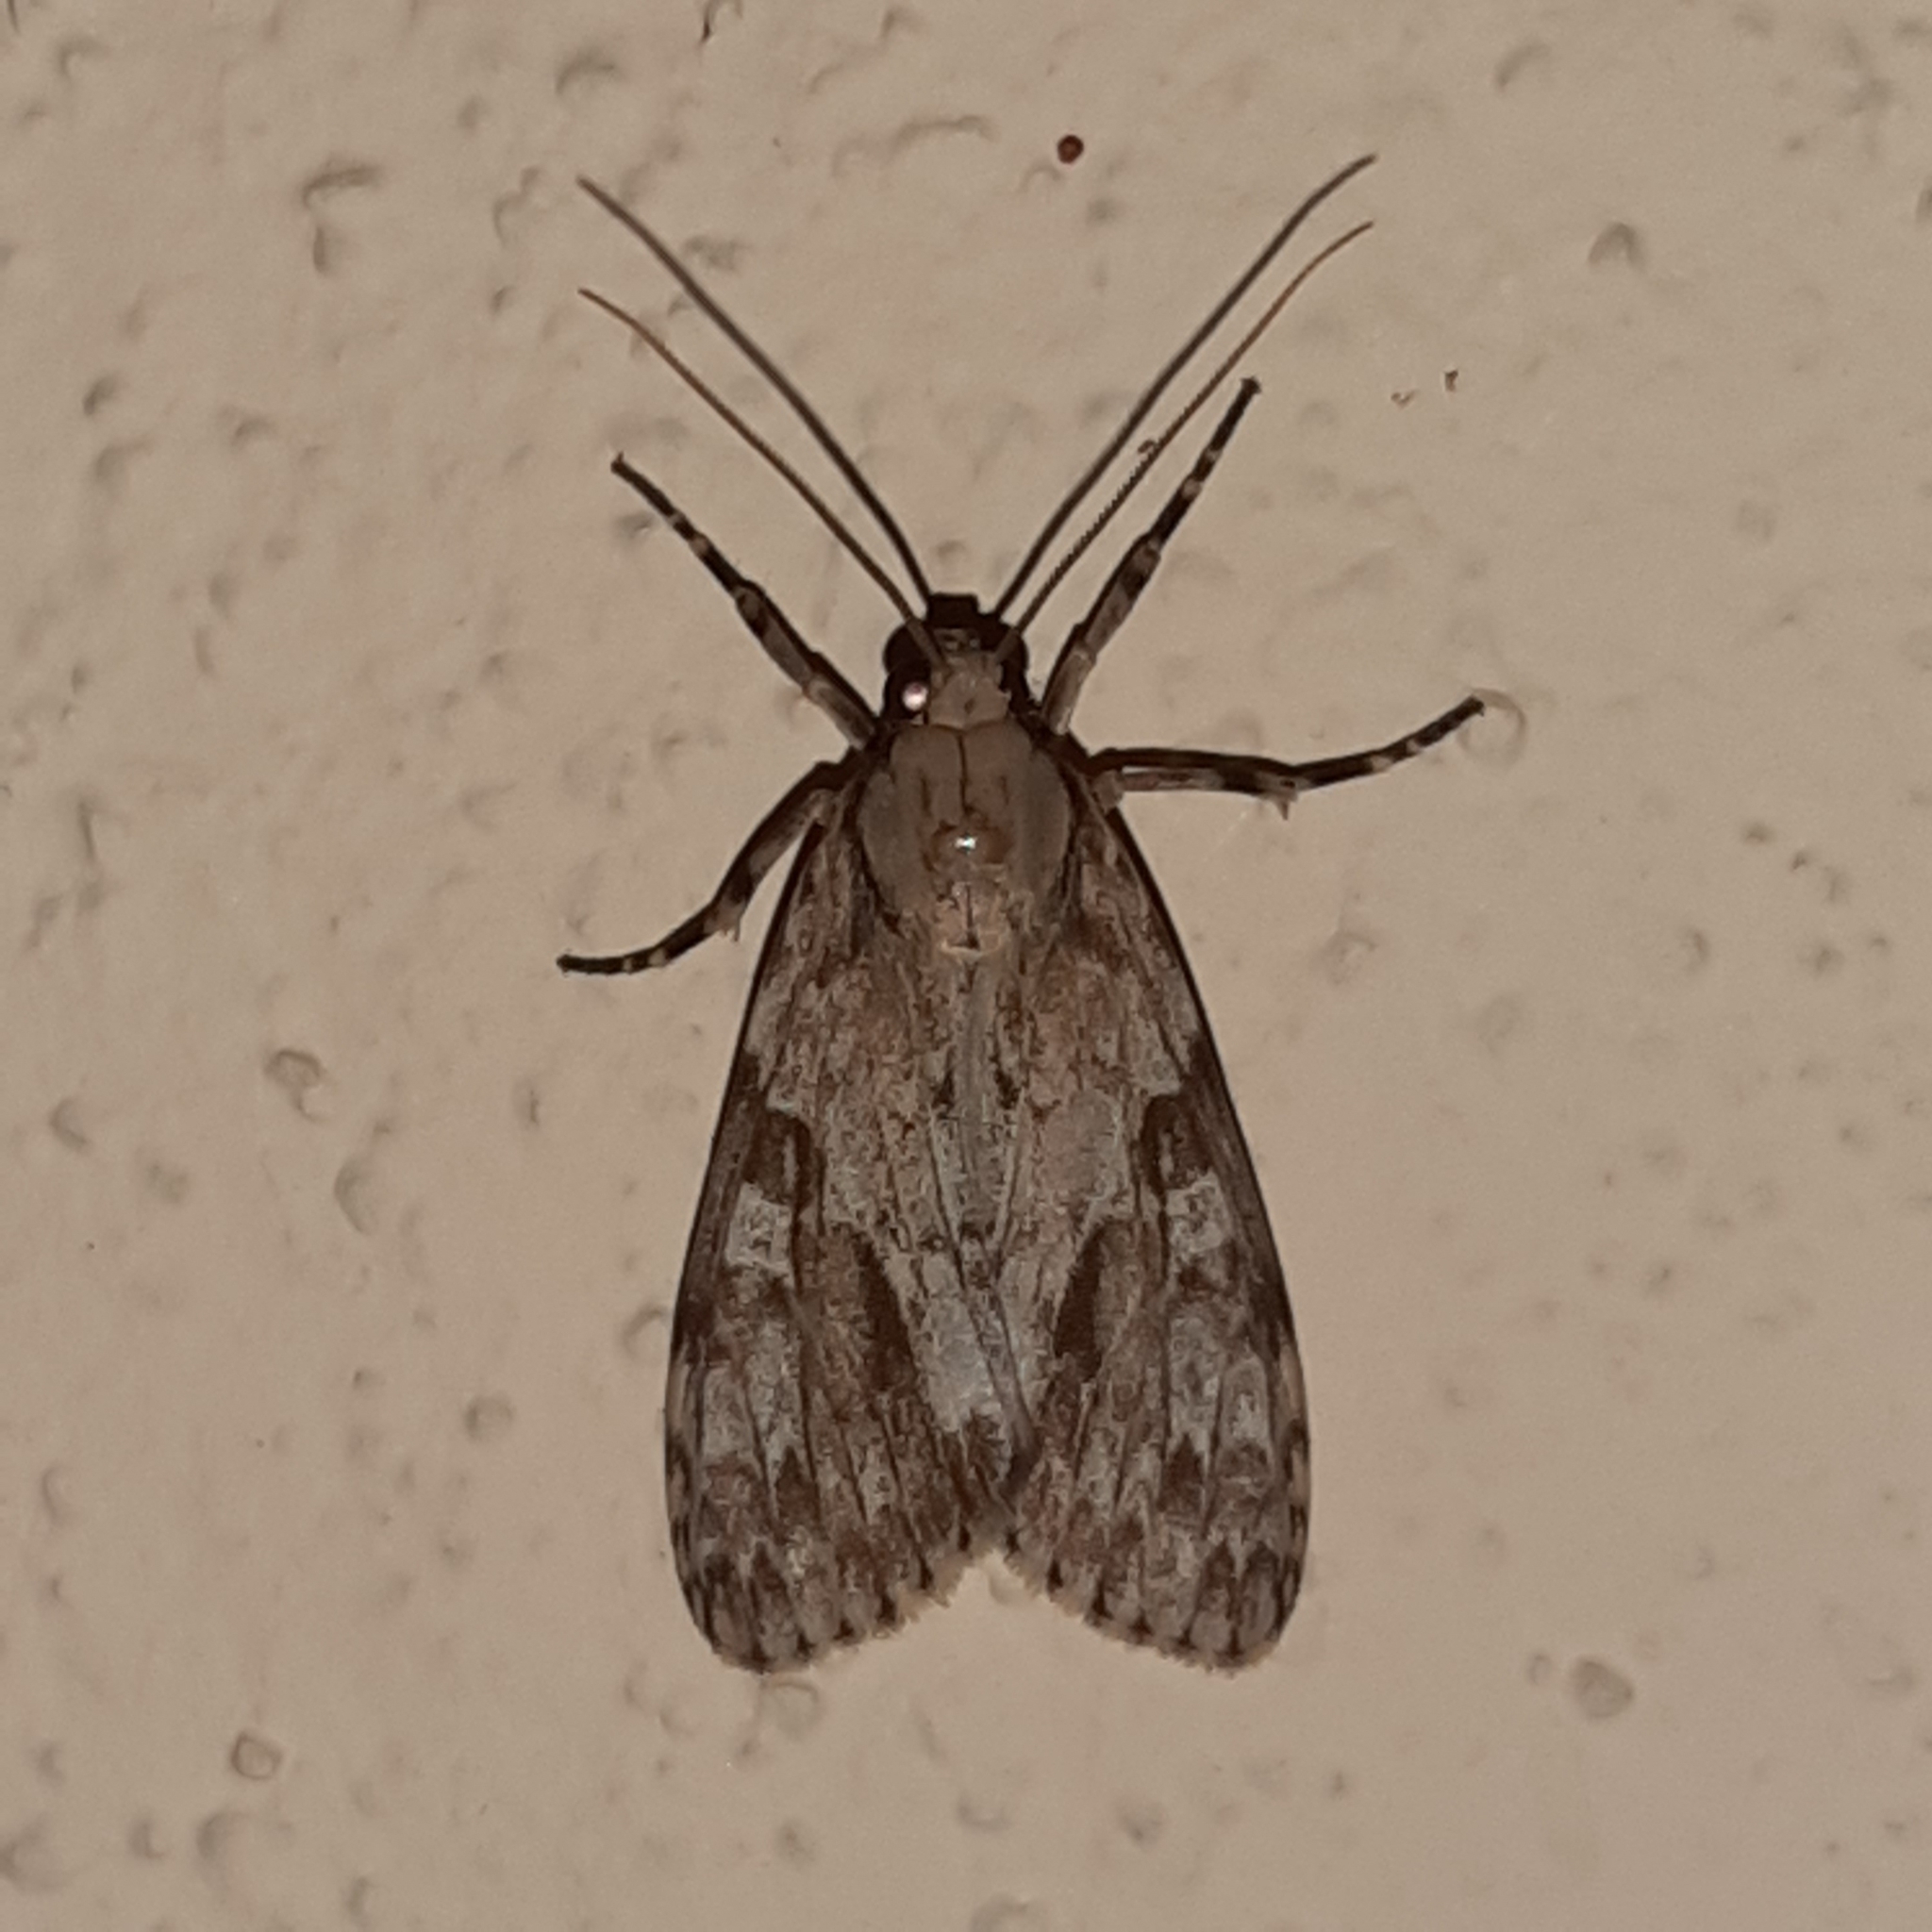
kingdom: Animalia
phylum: Arthropoda
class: Insecta
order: Lepidoptera
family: Erebidae
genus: Eucereon
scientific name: Eucereon maja
